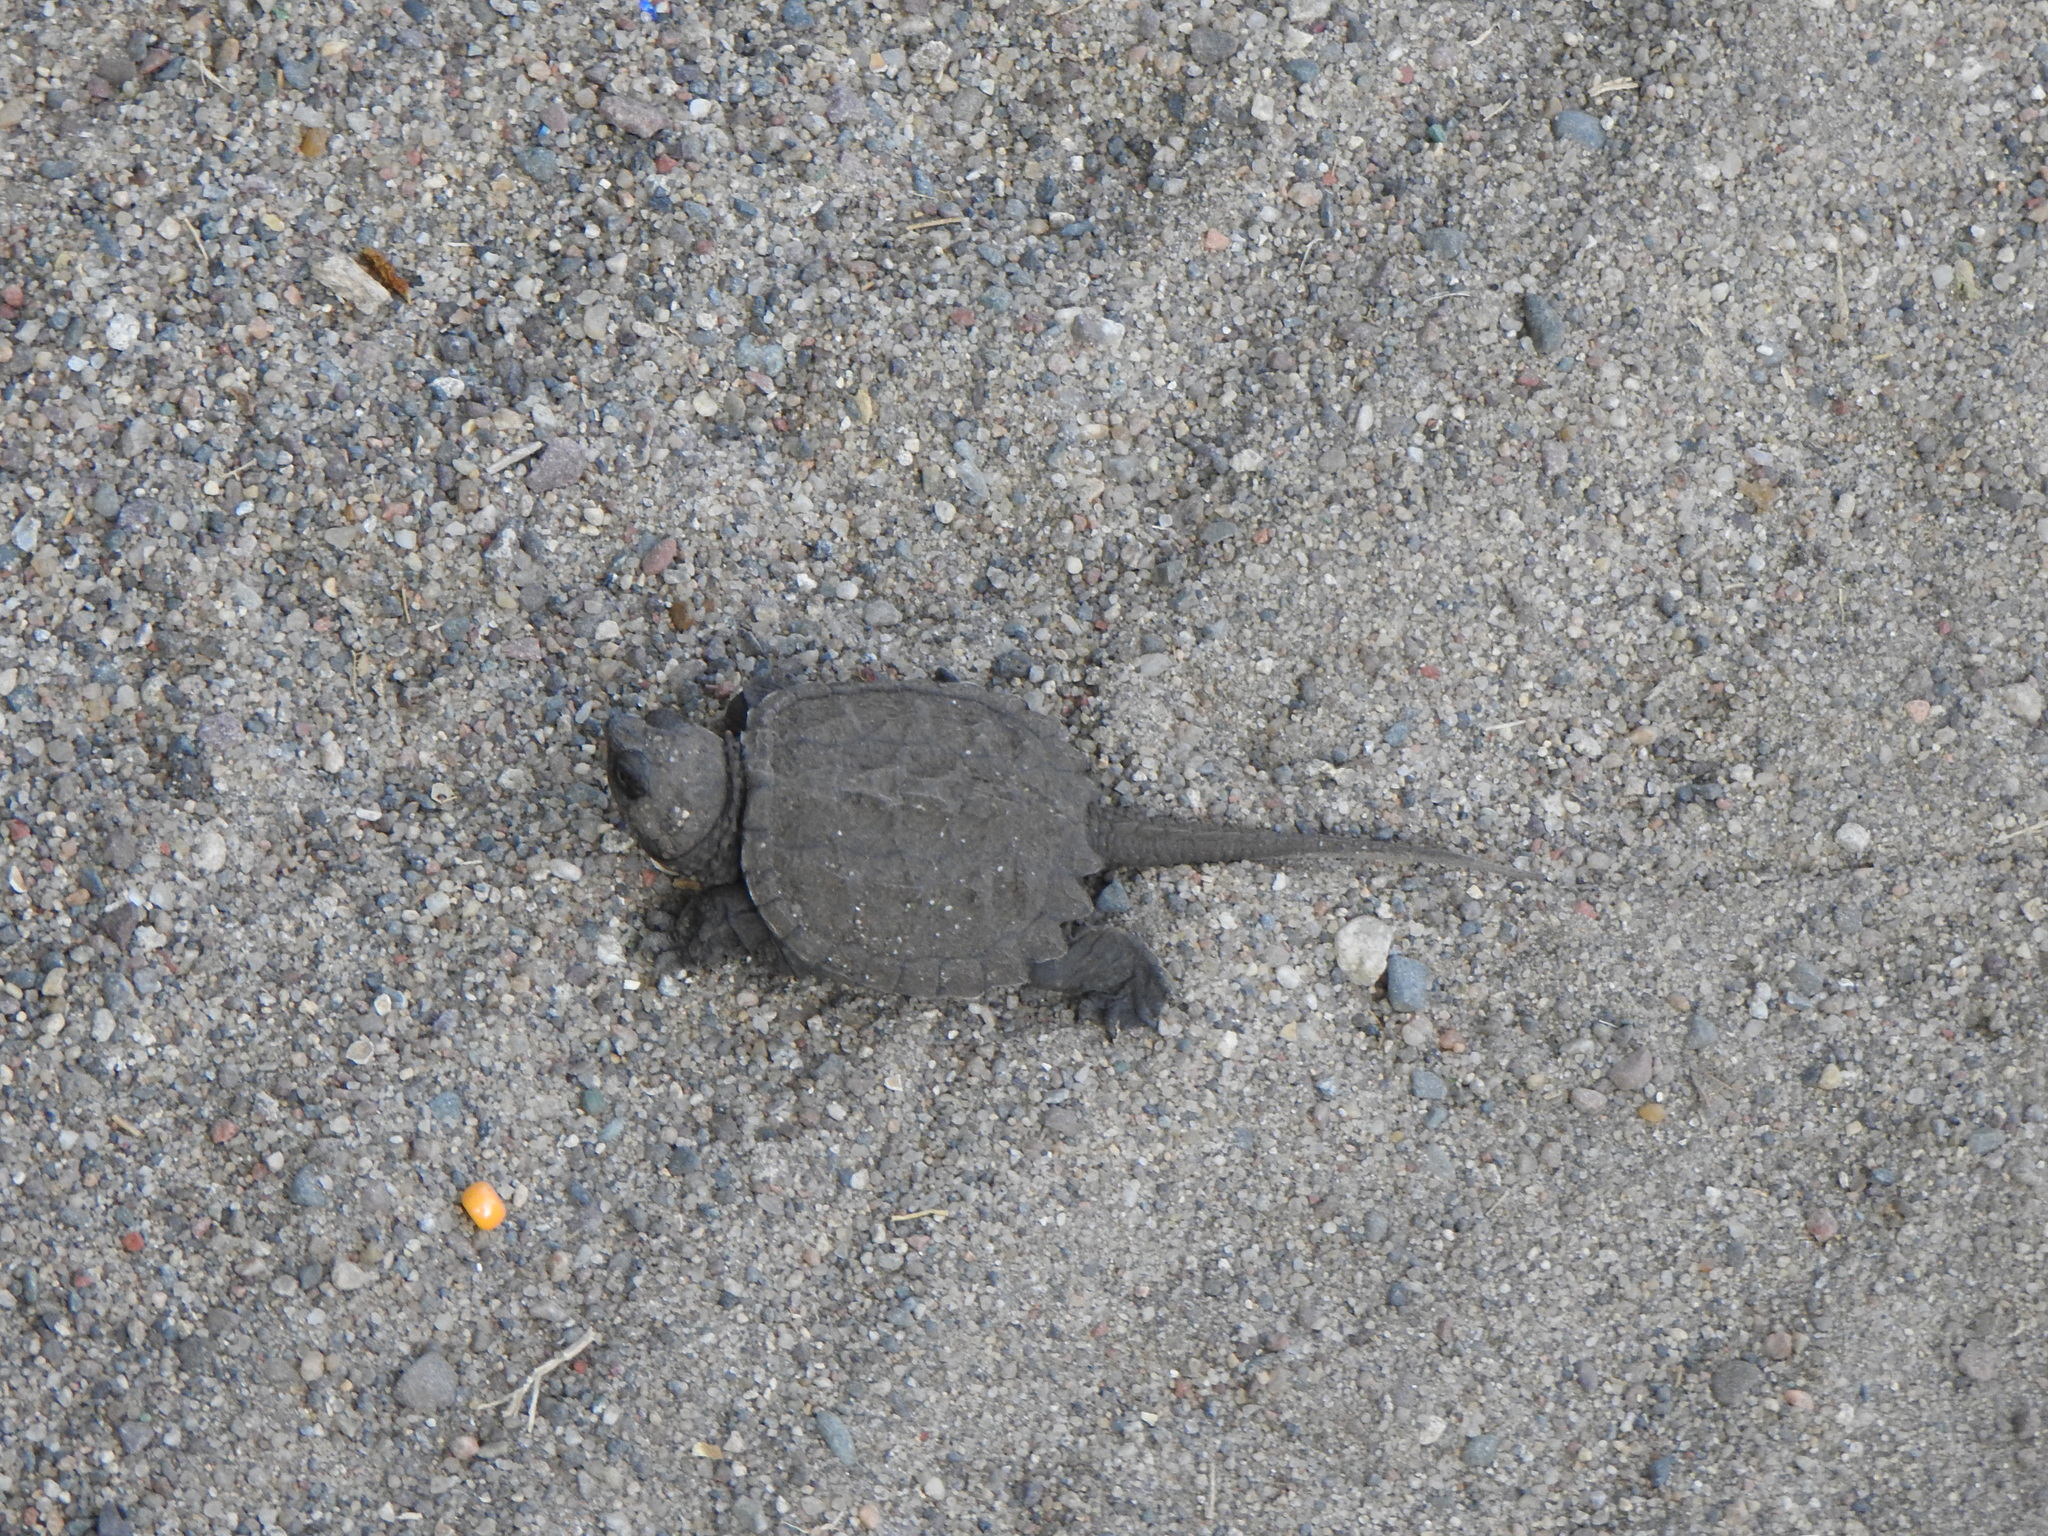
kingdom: Animalia
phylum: Chordata
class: Testudines
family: Chelydridae
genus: Chelydra
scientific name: Chelydra serpentina
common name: Common snapping turtle
